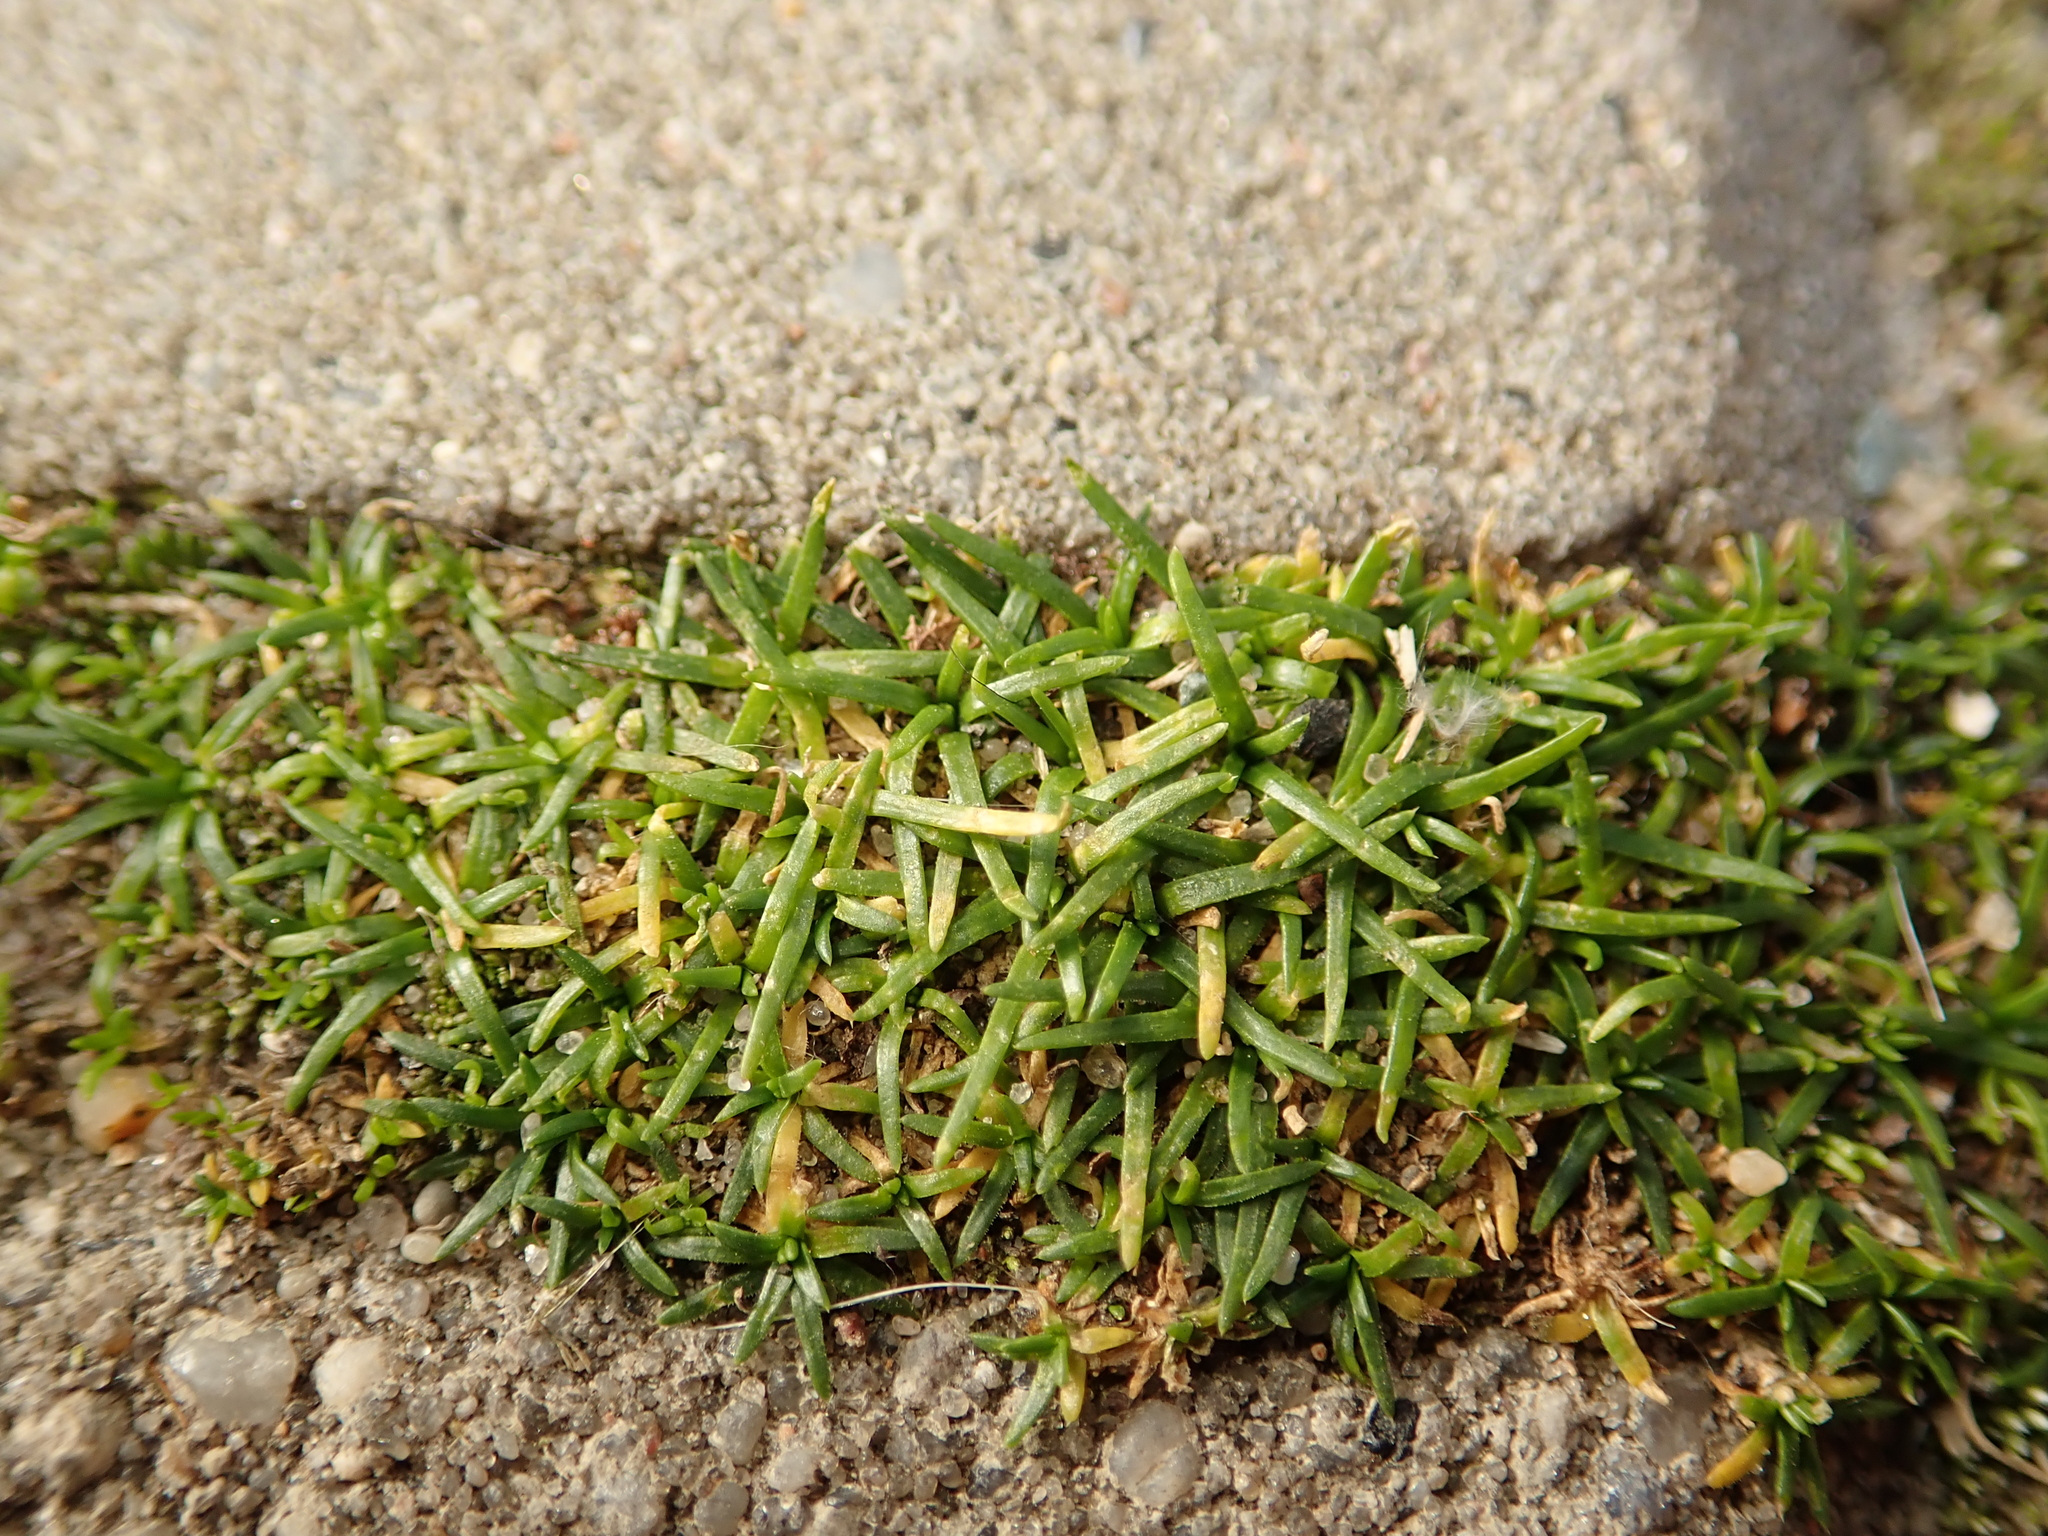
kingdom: Plantae
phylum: Tracheophyta
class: Magnoliopsida
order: Caryophyllales
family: Caryophyllaceae
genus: Sagina
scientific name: Sagina procumbens
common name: Procumbent pearlwort
